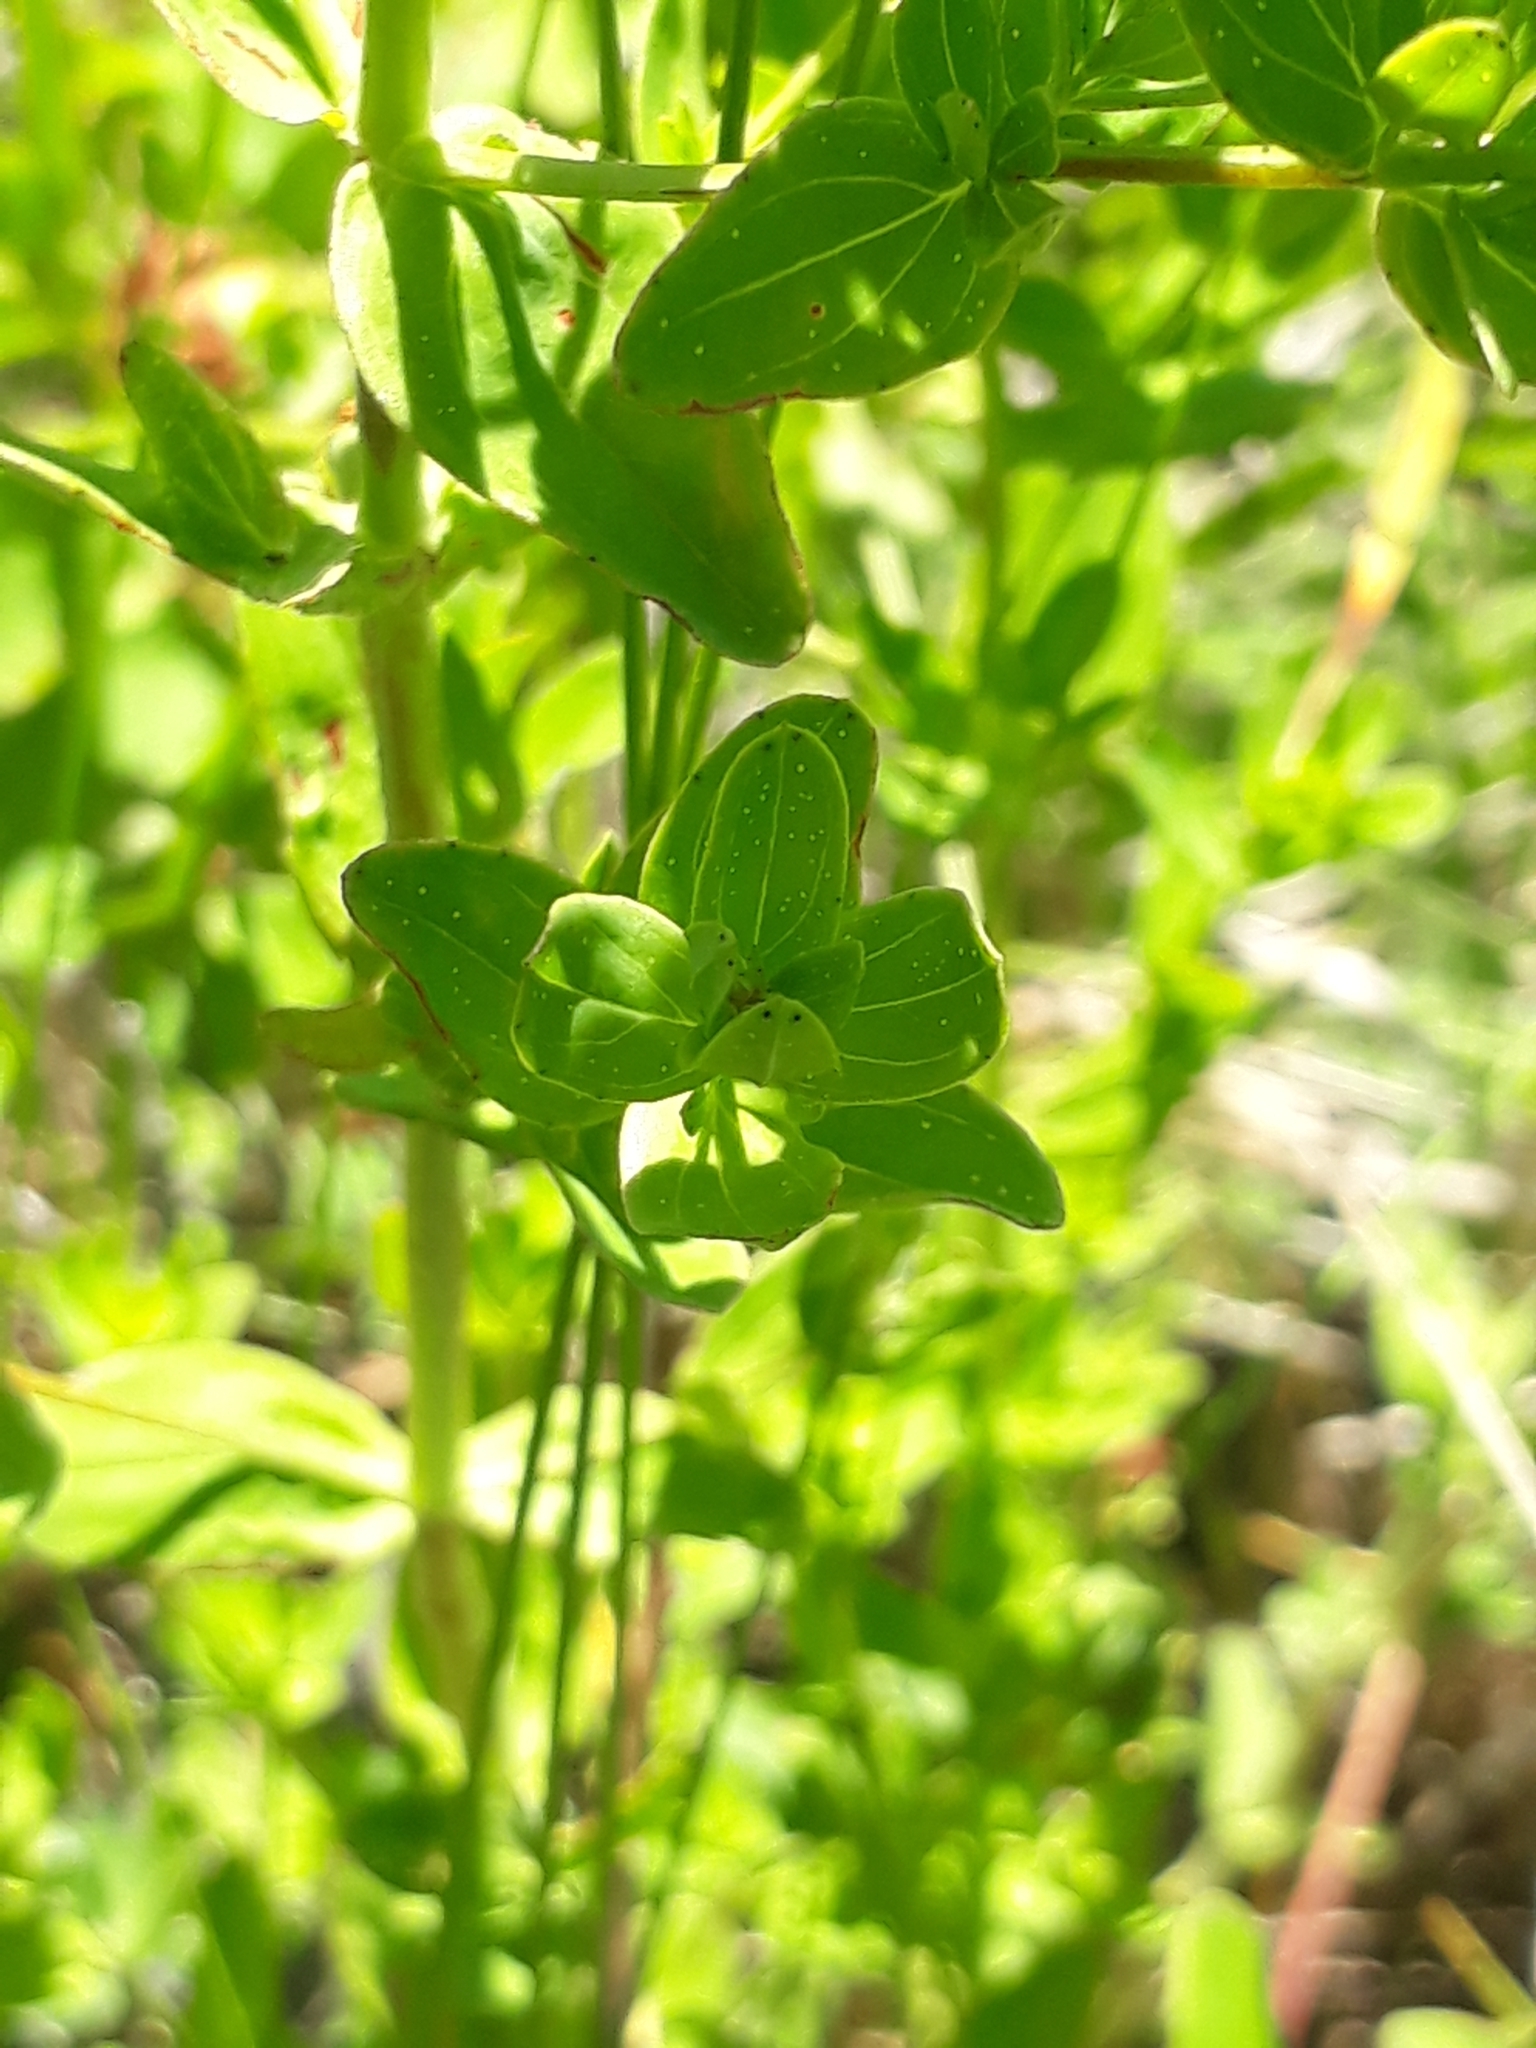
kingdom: Plantae
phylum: Tracheophyta
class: Magnoliopsida
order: Malpighiales
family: Hypericaceae
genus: Hypericum
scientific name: Hypericum perforatum
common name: Common st. johnswort
